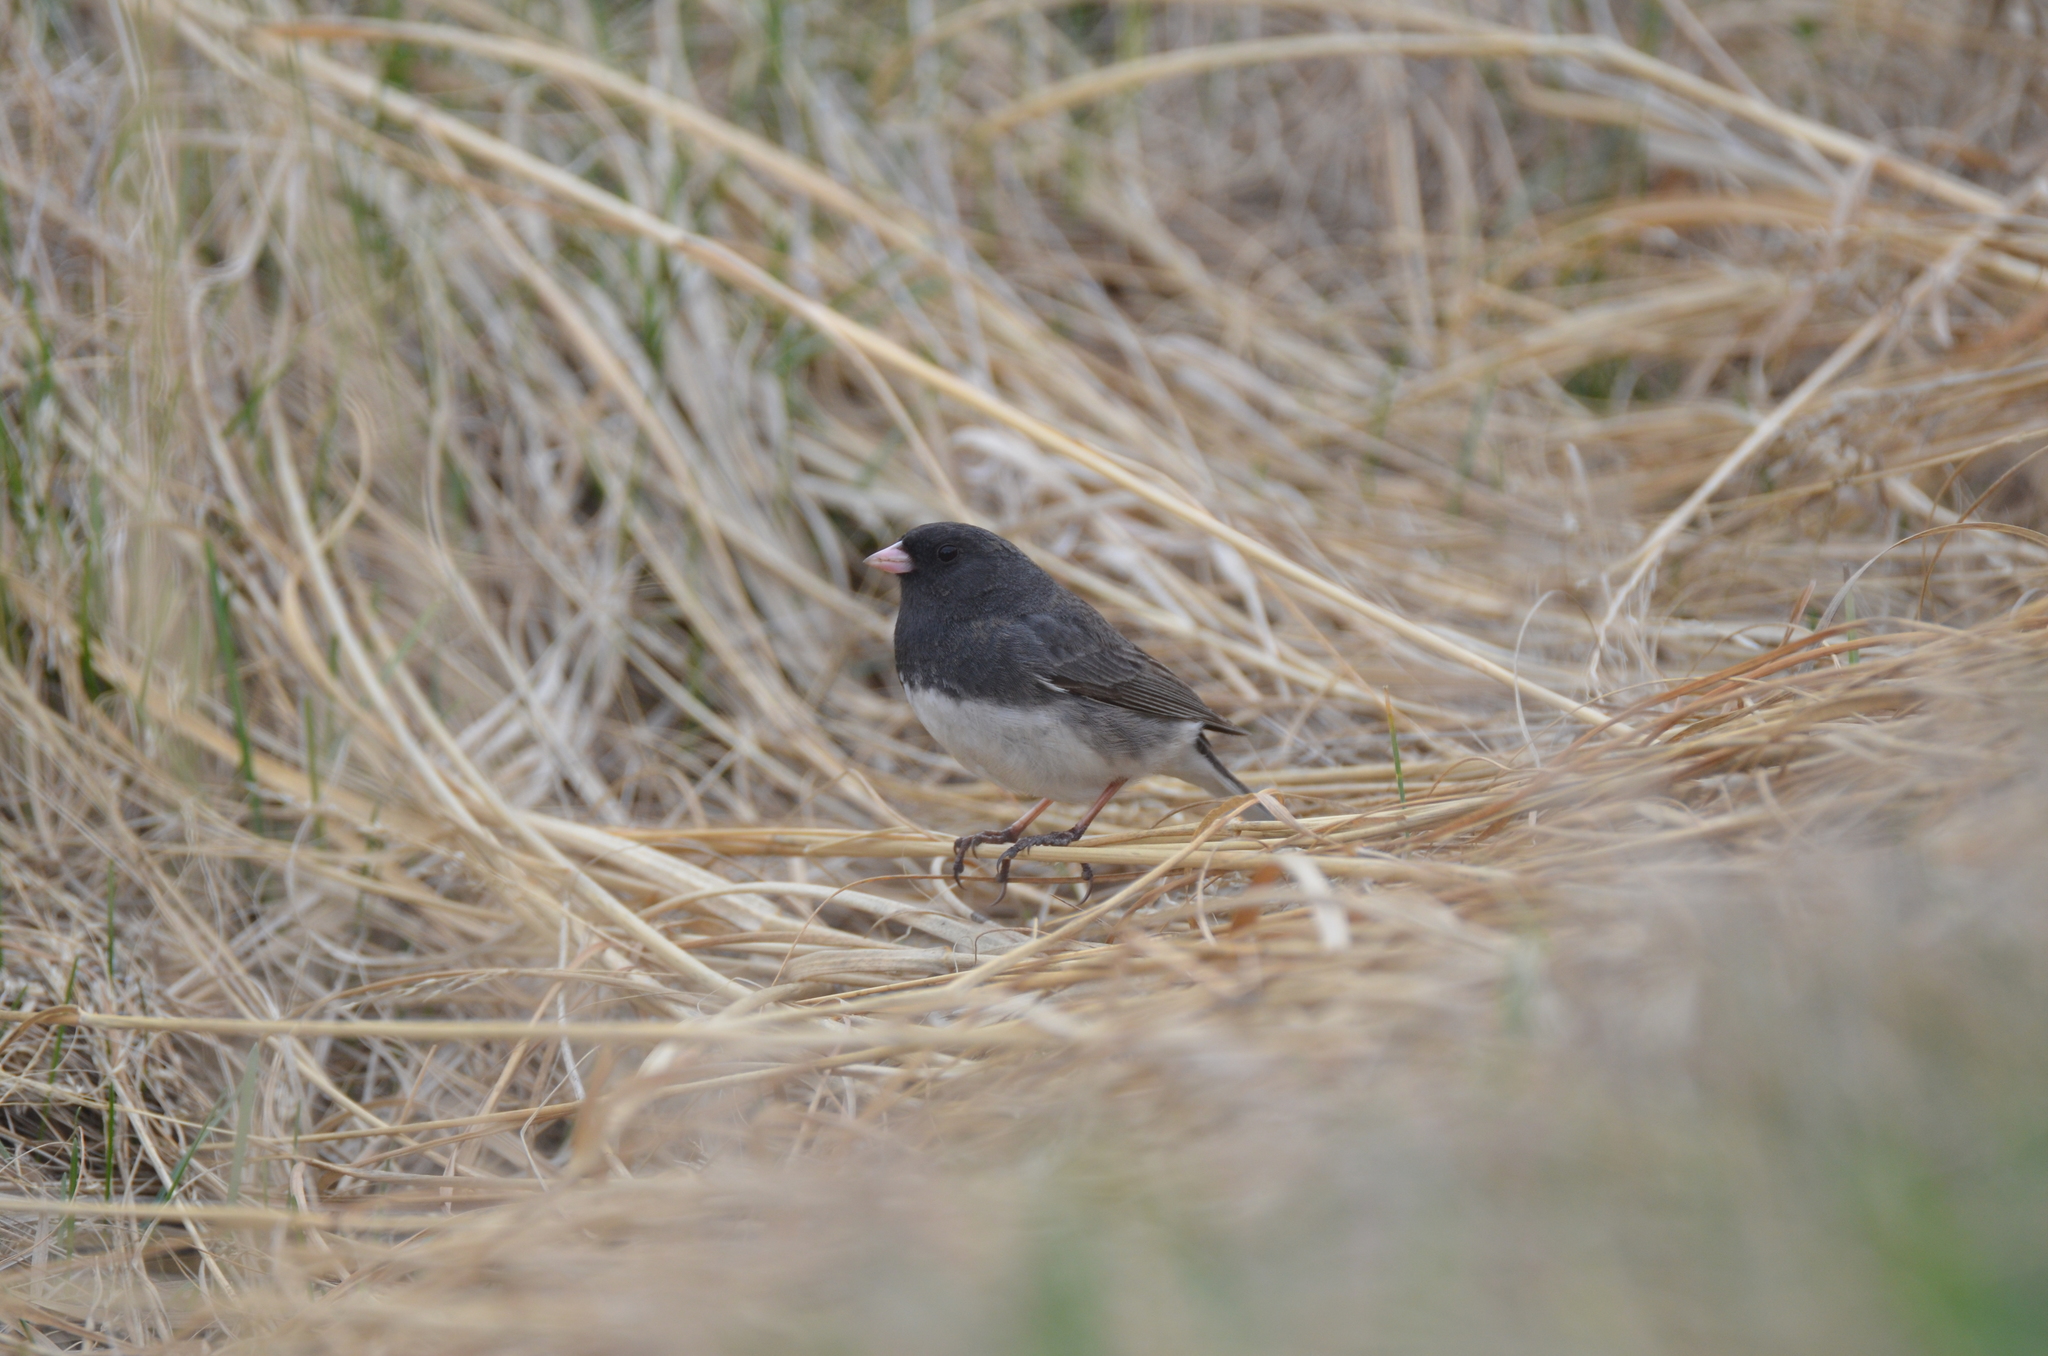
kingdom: Animalia
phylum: Chordata
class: Aves
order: Passeriformes
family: Passerellidae
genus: Junco
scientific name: Junco hyemalis
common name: Dark-eyed junco
